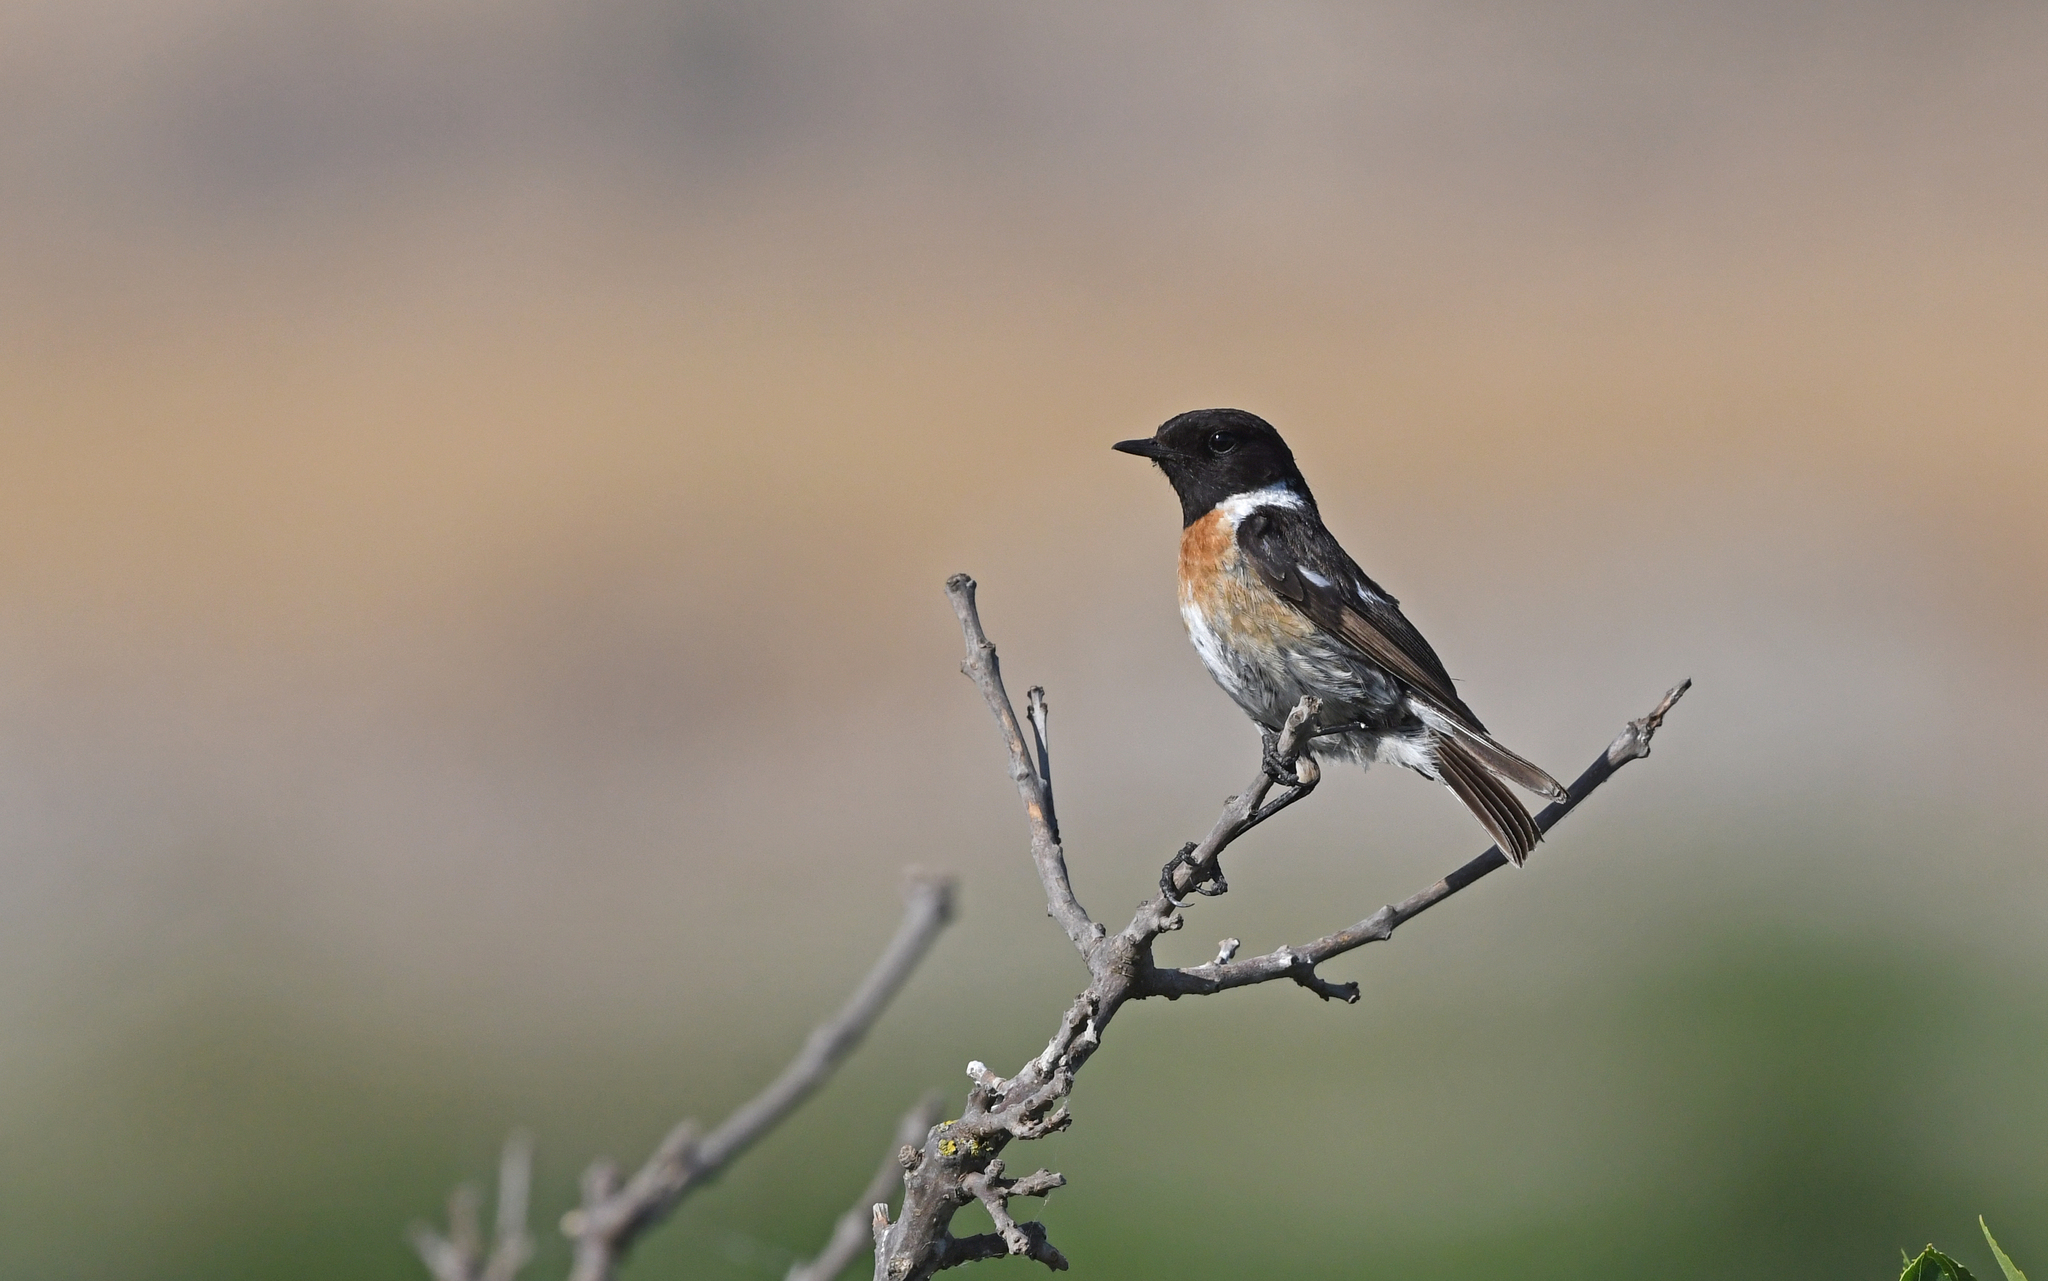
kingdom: Animalia
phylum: Chordata
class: Aves
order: Passeriformes
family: Muscicapidae
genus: Saxicola
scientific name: Saxicola rubicola
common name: European stonechat
